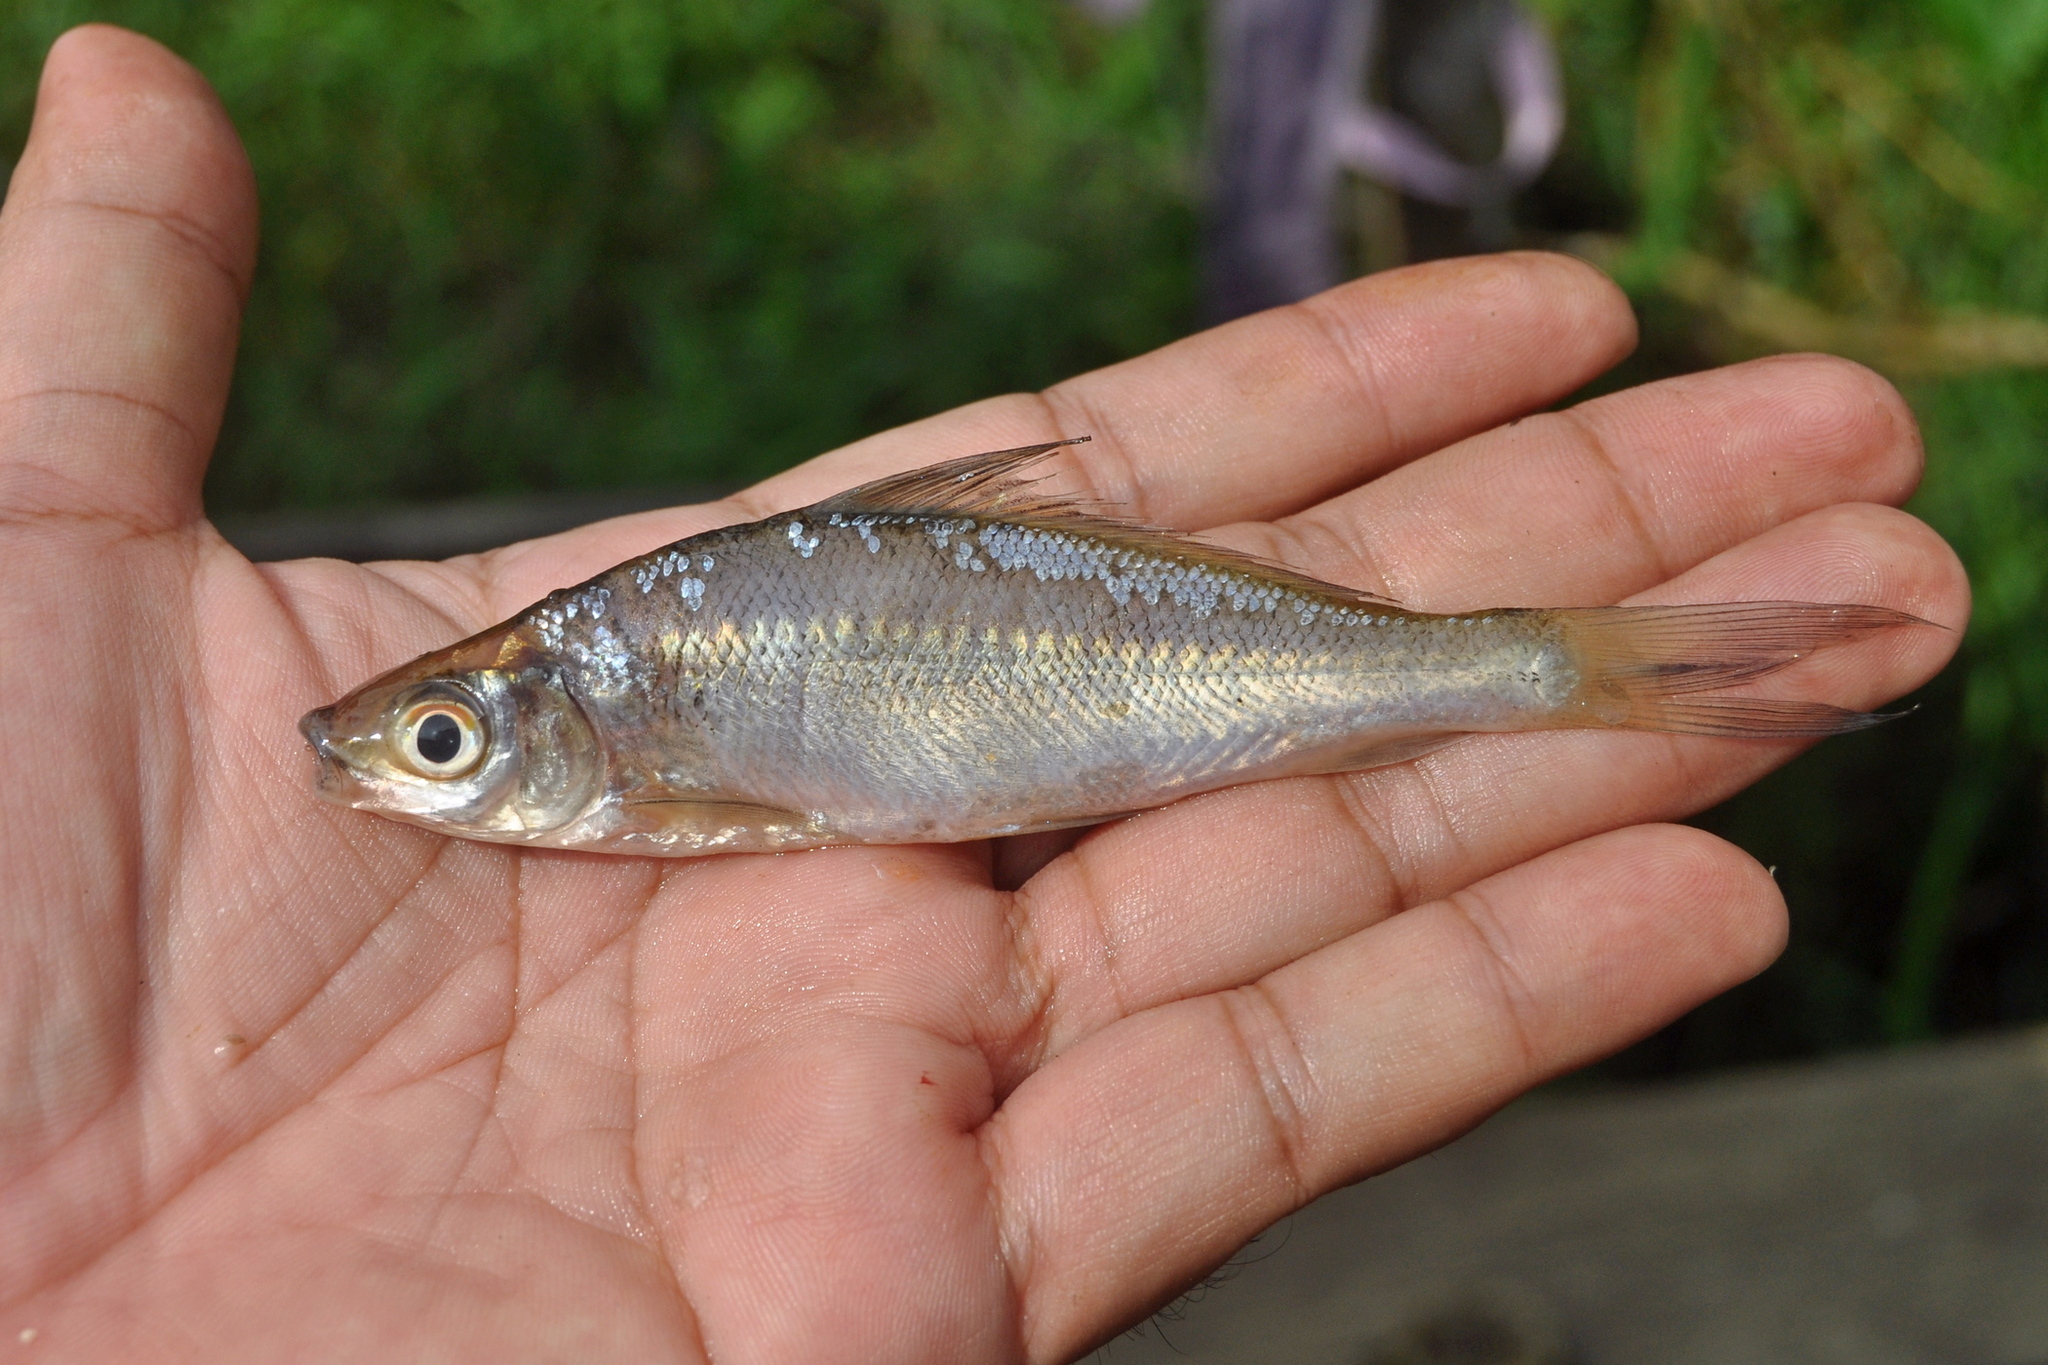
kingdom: Animalia
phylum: Chordata
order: Cypriniformes
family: Cyprinidae
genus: Labiobarbus
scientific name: Labiobarbus ocellatus
